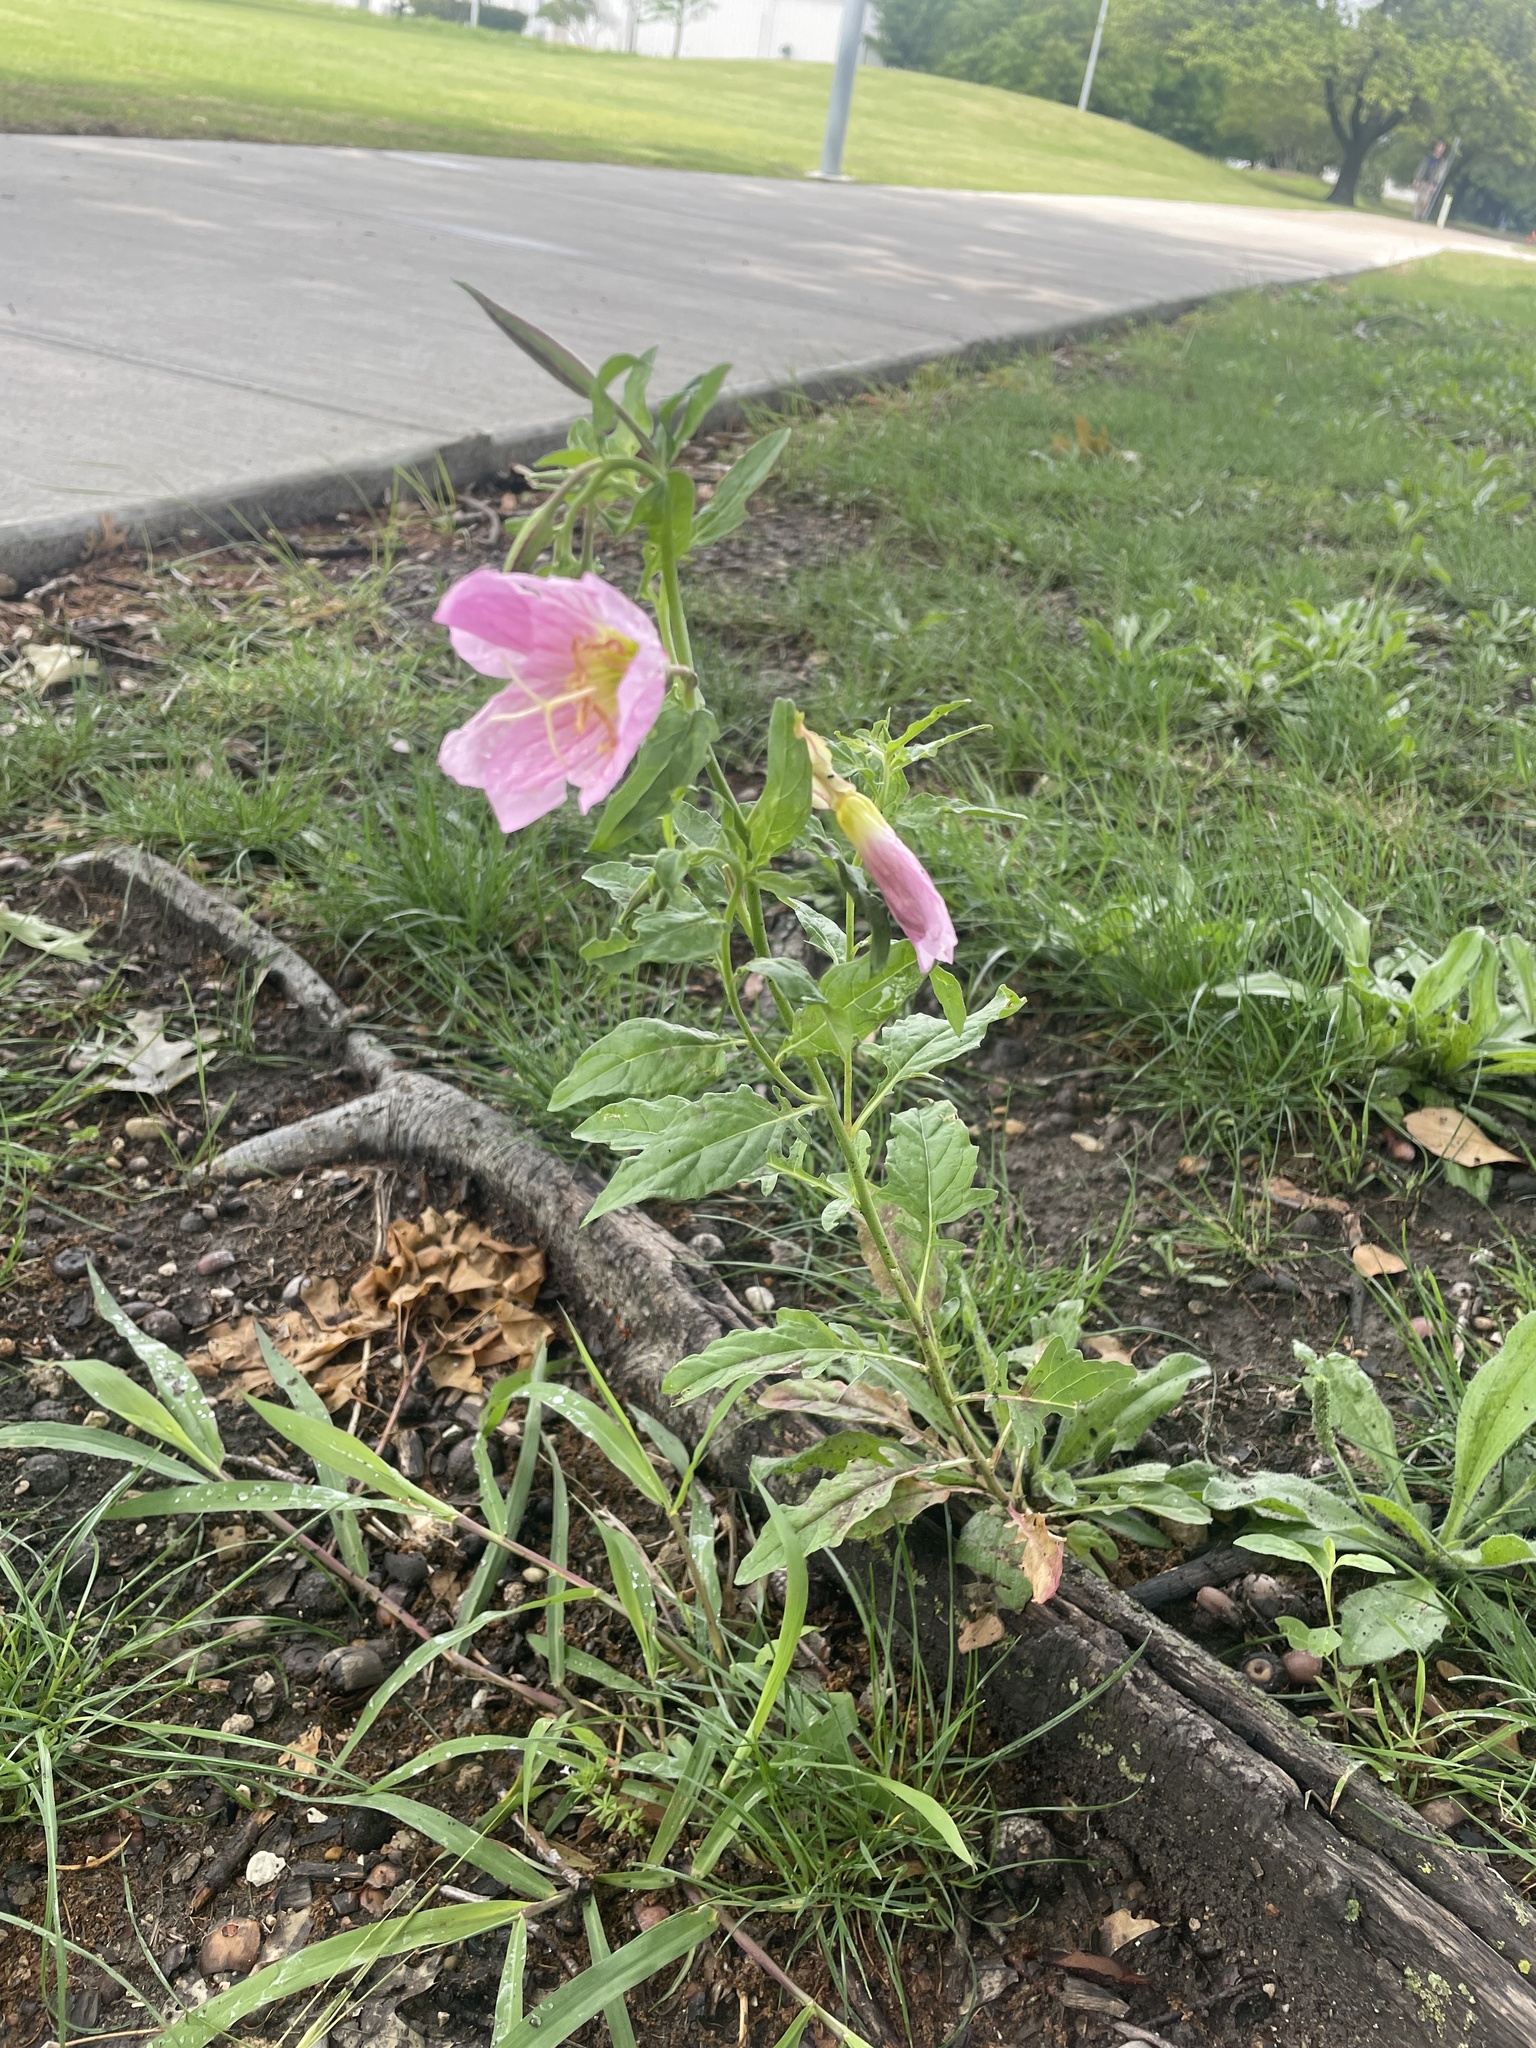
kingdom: Plantae
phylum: Tracheophyta
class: Magnoliopsida
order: Myrtales
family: Onagraceae
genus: Oenothera
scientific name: Oenothera speciosa
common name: White evening-primrose
